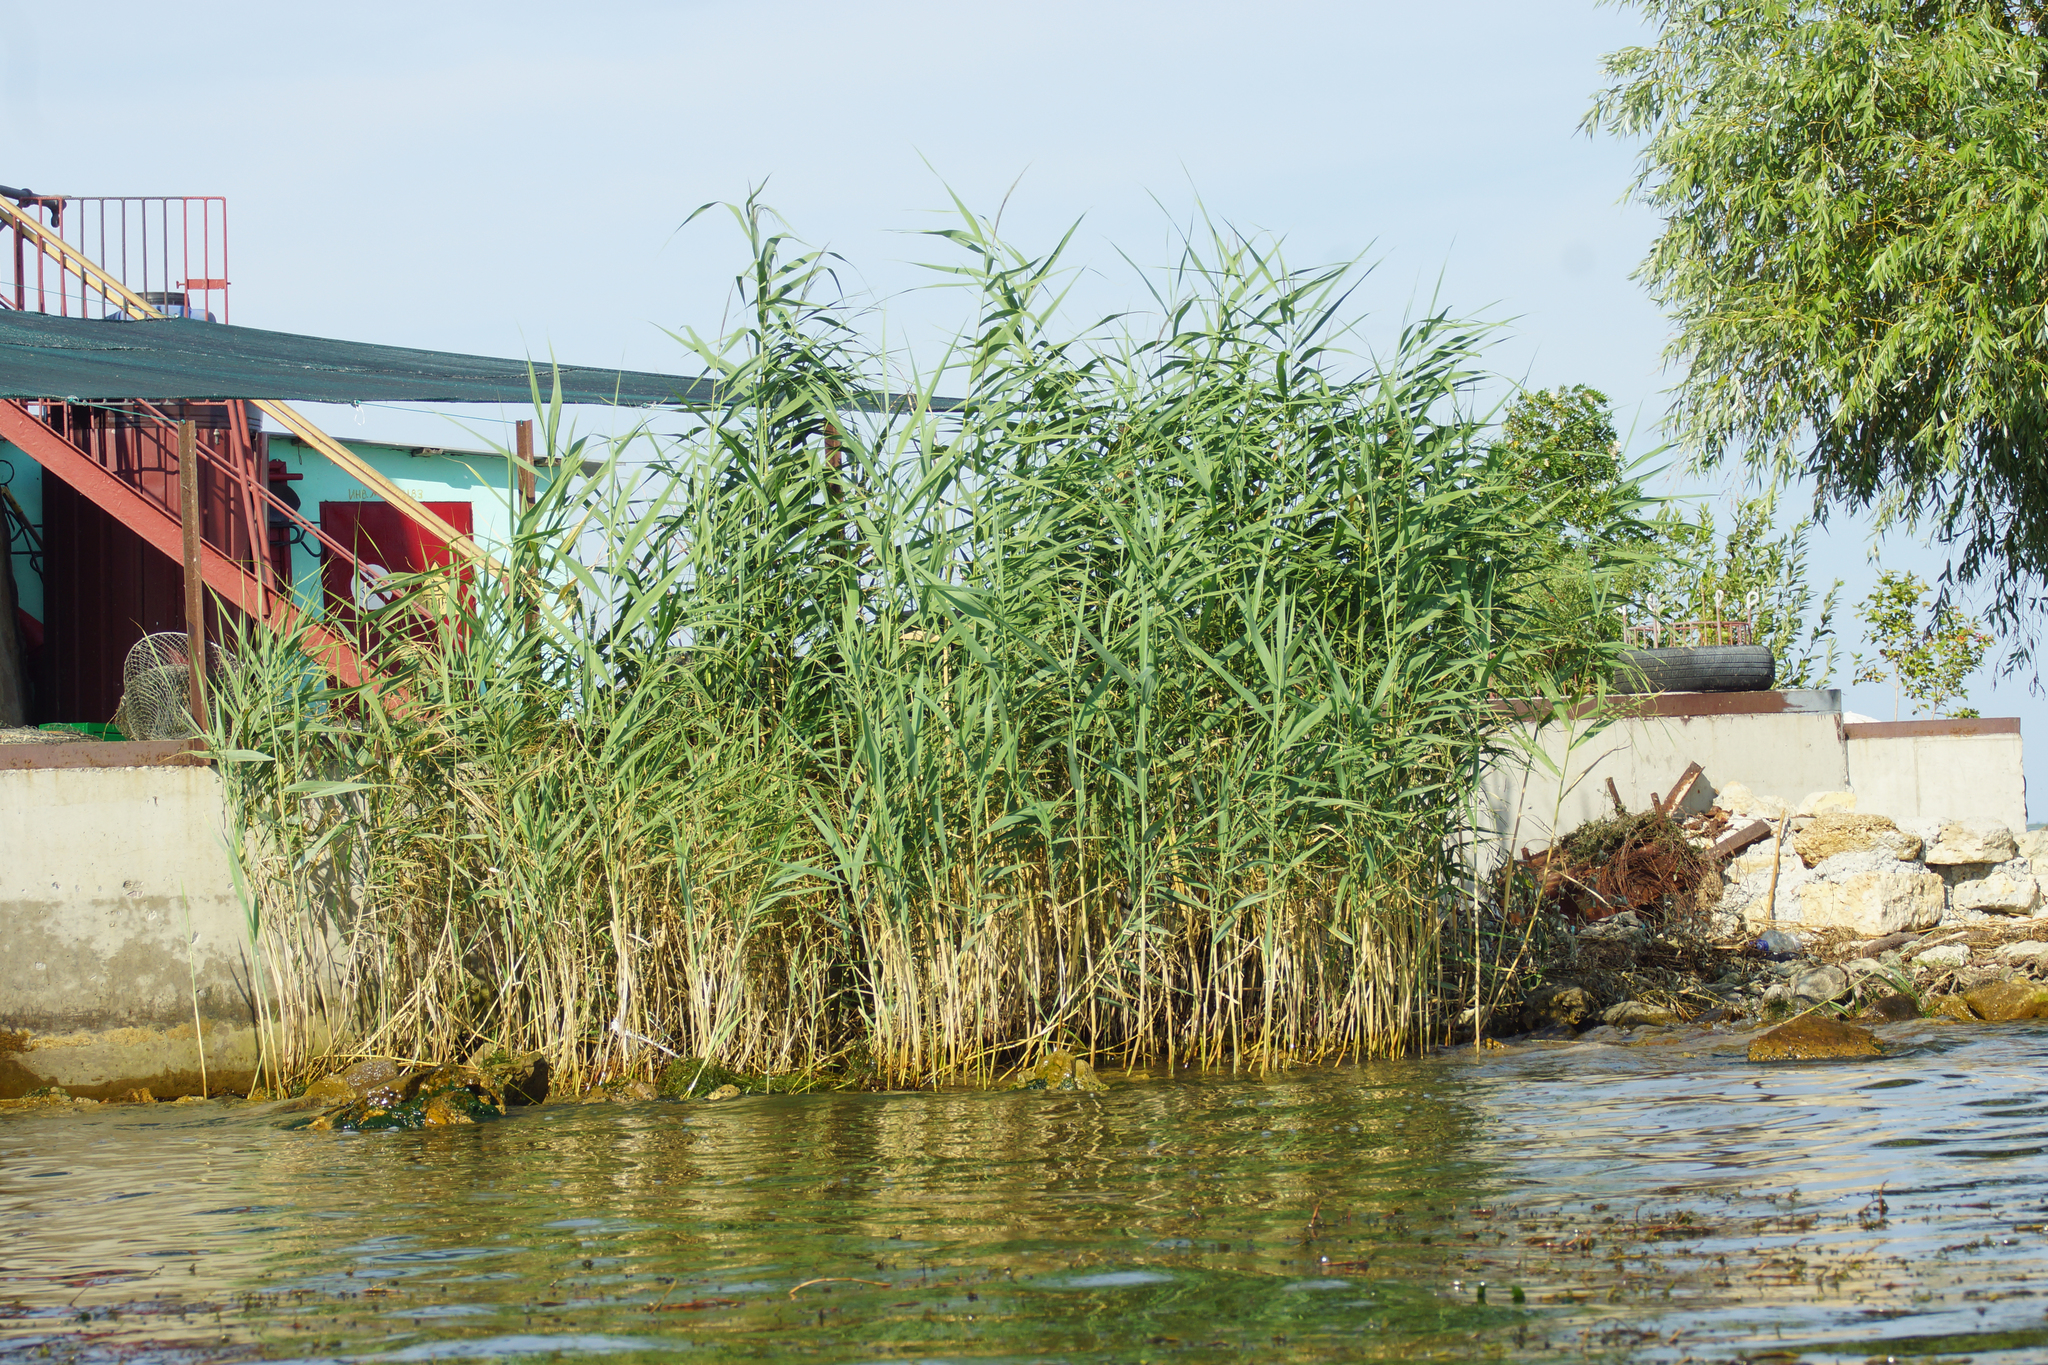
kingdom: Plantae
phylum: Tracheophyta
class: Liliopsida
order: Poales
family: Poaceae
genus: Phragmites
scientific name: Phragmites australis
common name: Common reed
